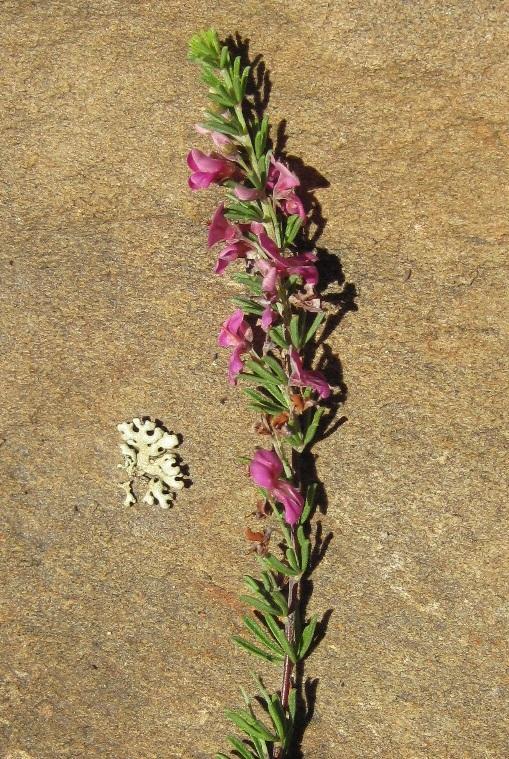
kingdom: Plantae
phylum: Tracheophyta
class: Magnoliopsida
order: Fabales
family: Fabaceae
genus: Indigofera
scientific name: Indigofera pappei
